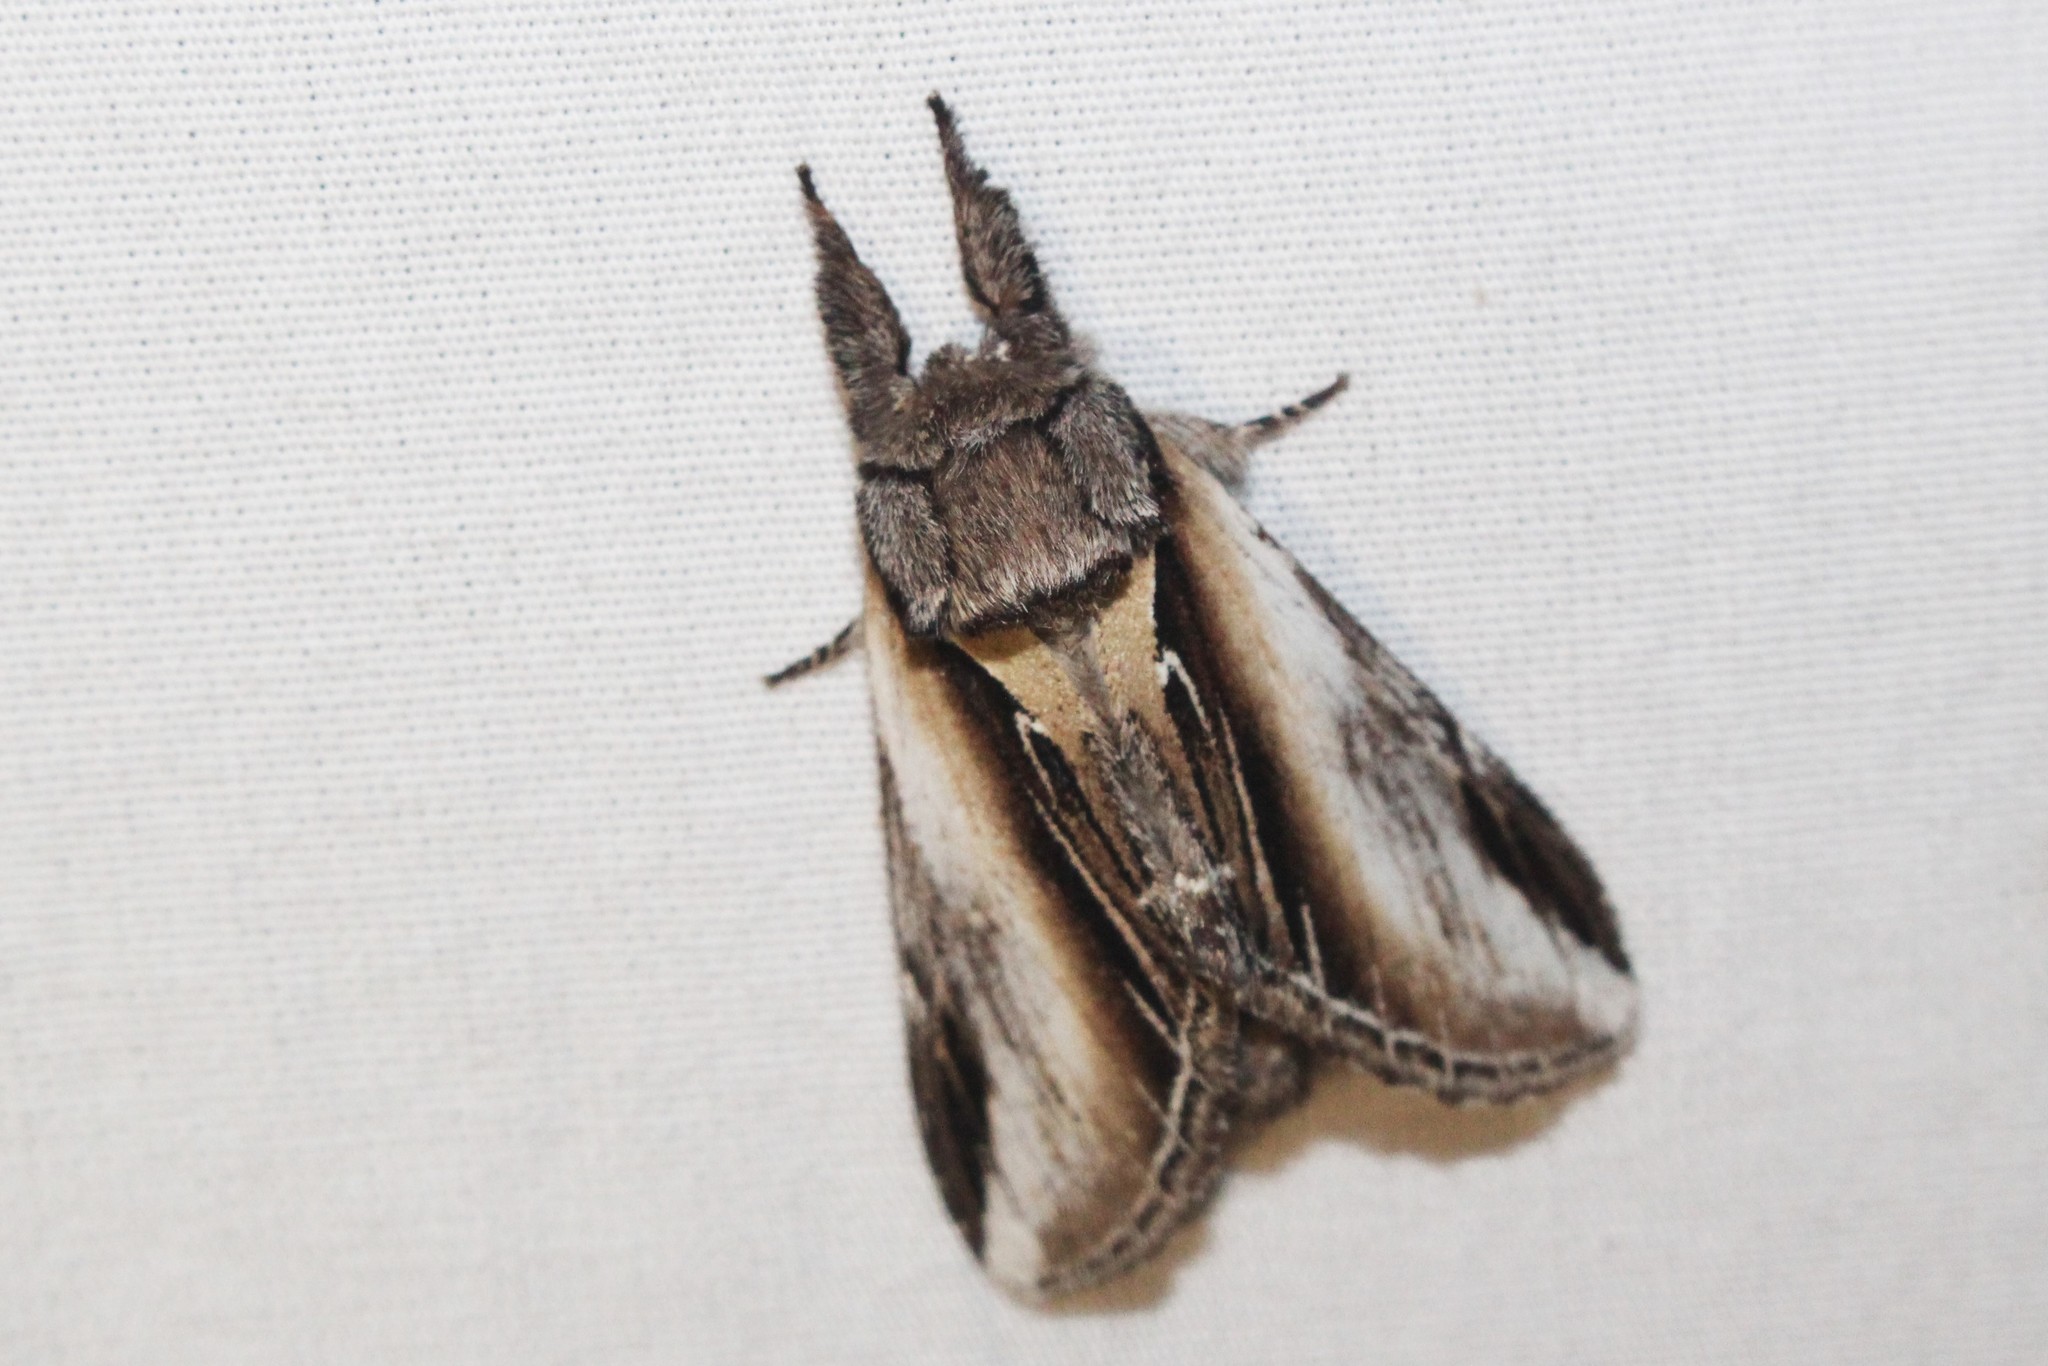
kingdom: Animalia
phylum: Arthropoda
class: Insecta
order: Lepidoptera
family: Notodontidae
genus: Pheosia
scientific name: Pheosia rimosa
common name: Black-rimmed prominent
